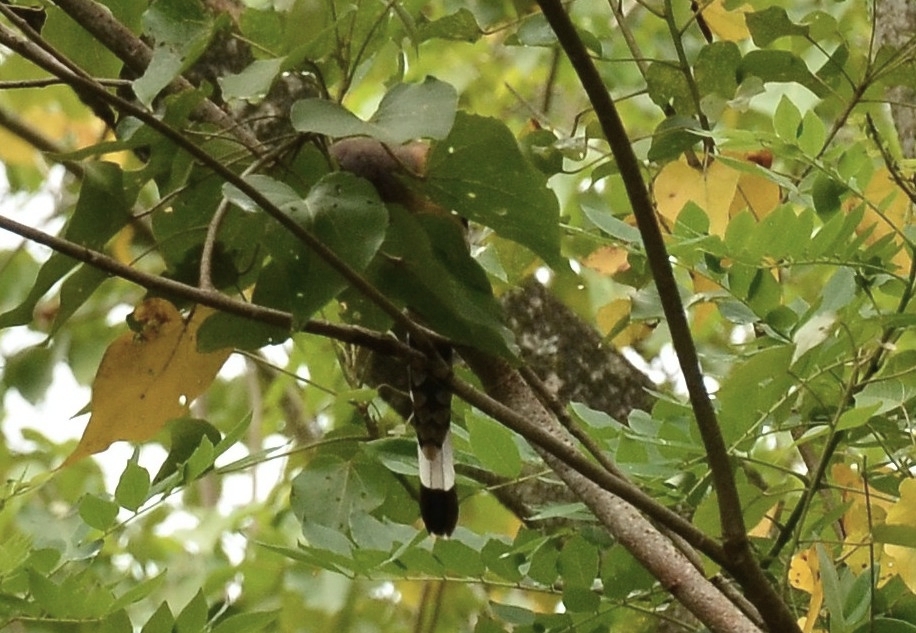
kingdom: Animalia
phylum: Chordata
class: Aves
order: Passeriformes
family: Corvidae
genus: Dendrocitta
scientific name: Dendrocitta vagabunda
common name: Rufous treepie
